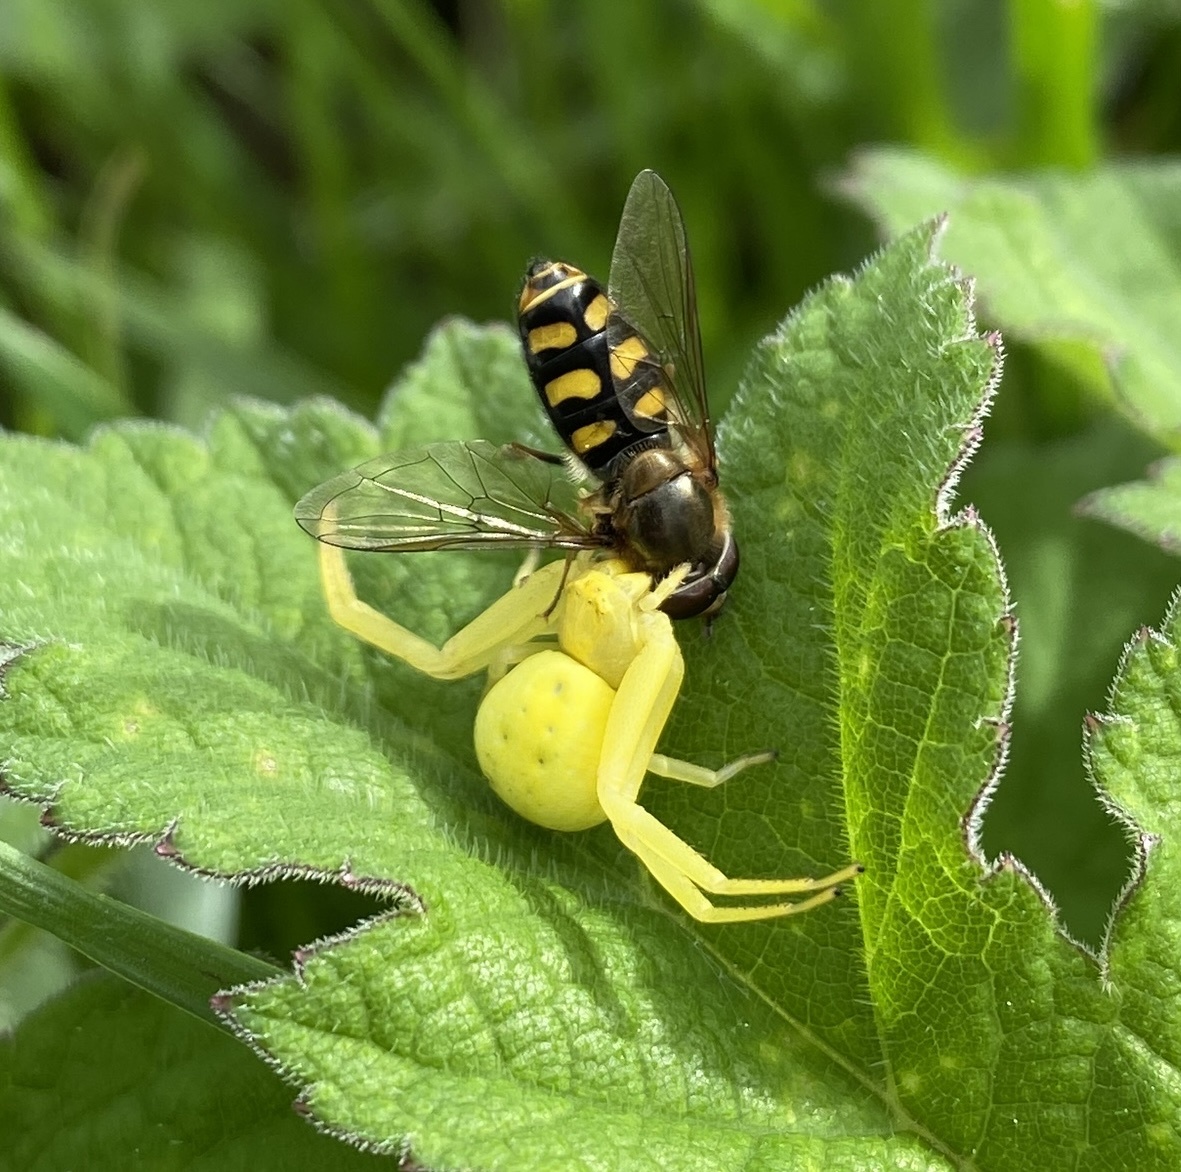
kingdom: Animalia
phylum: Arthropoda
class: Arachnida
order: Araneae
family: Thomisidae
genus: Misumena
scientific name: Misumena vatia
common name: Goldenrod crab spider
